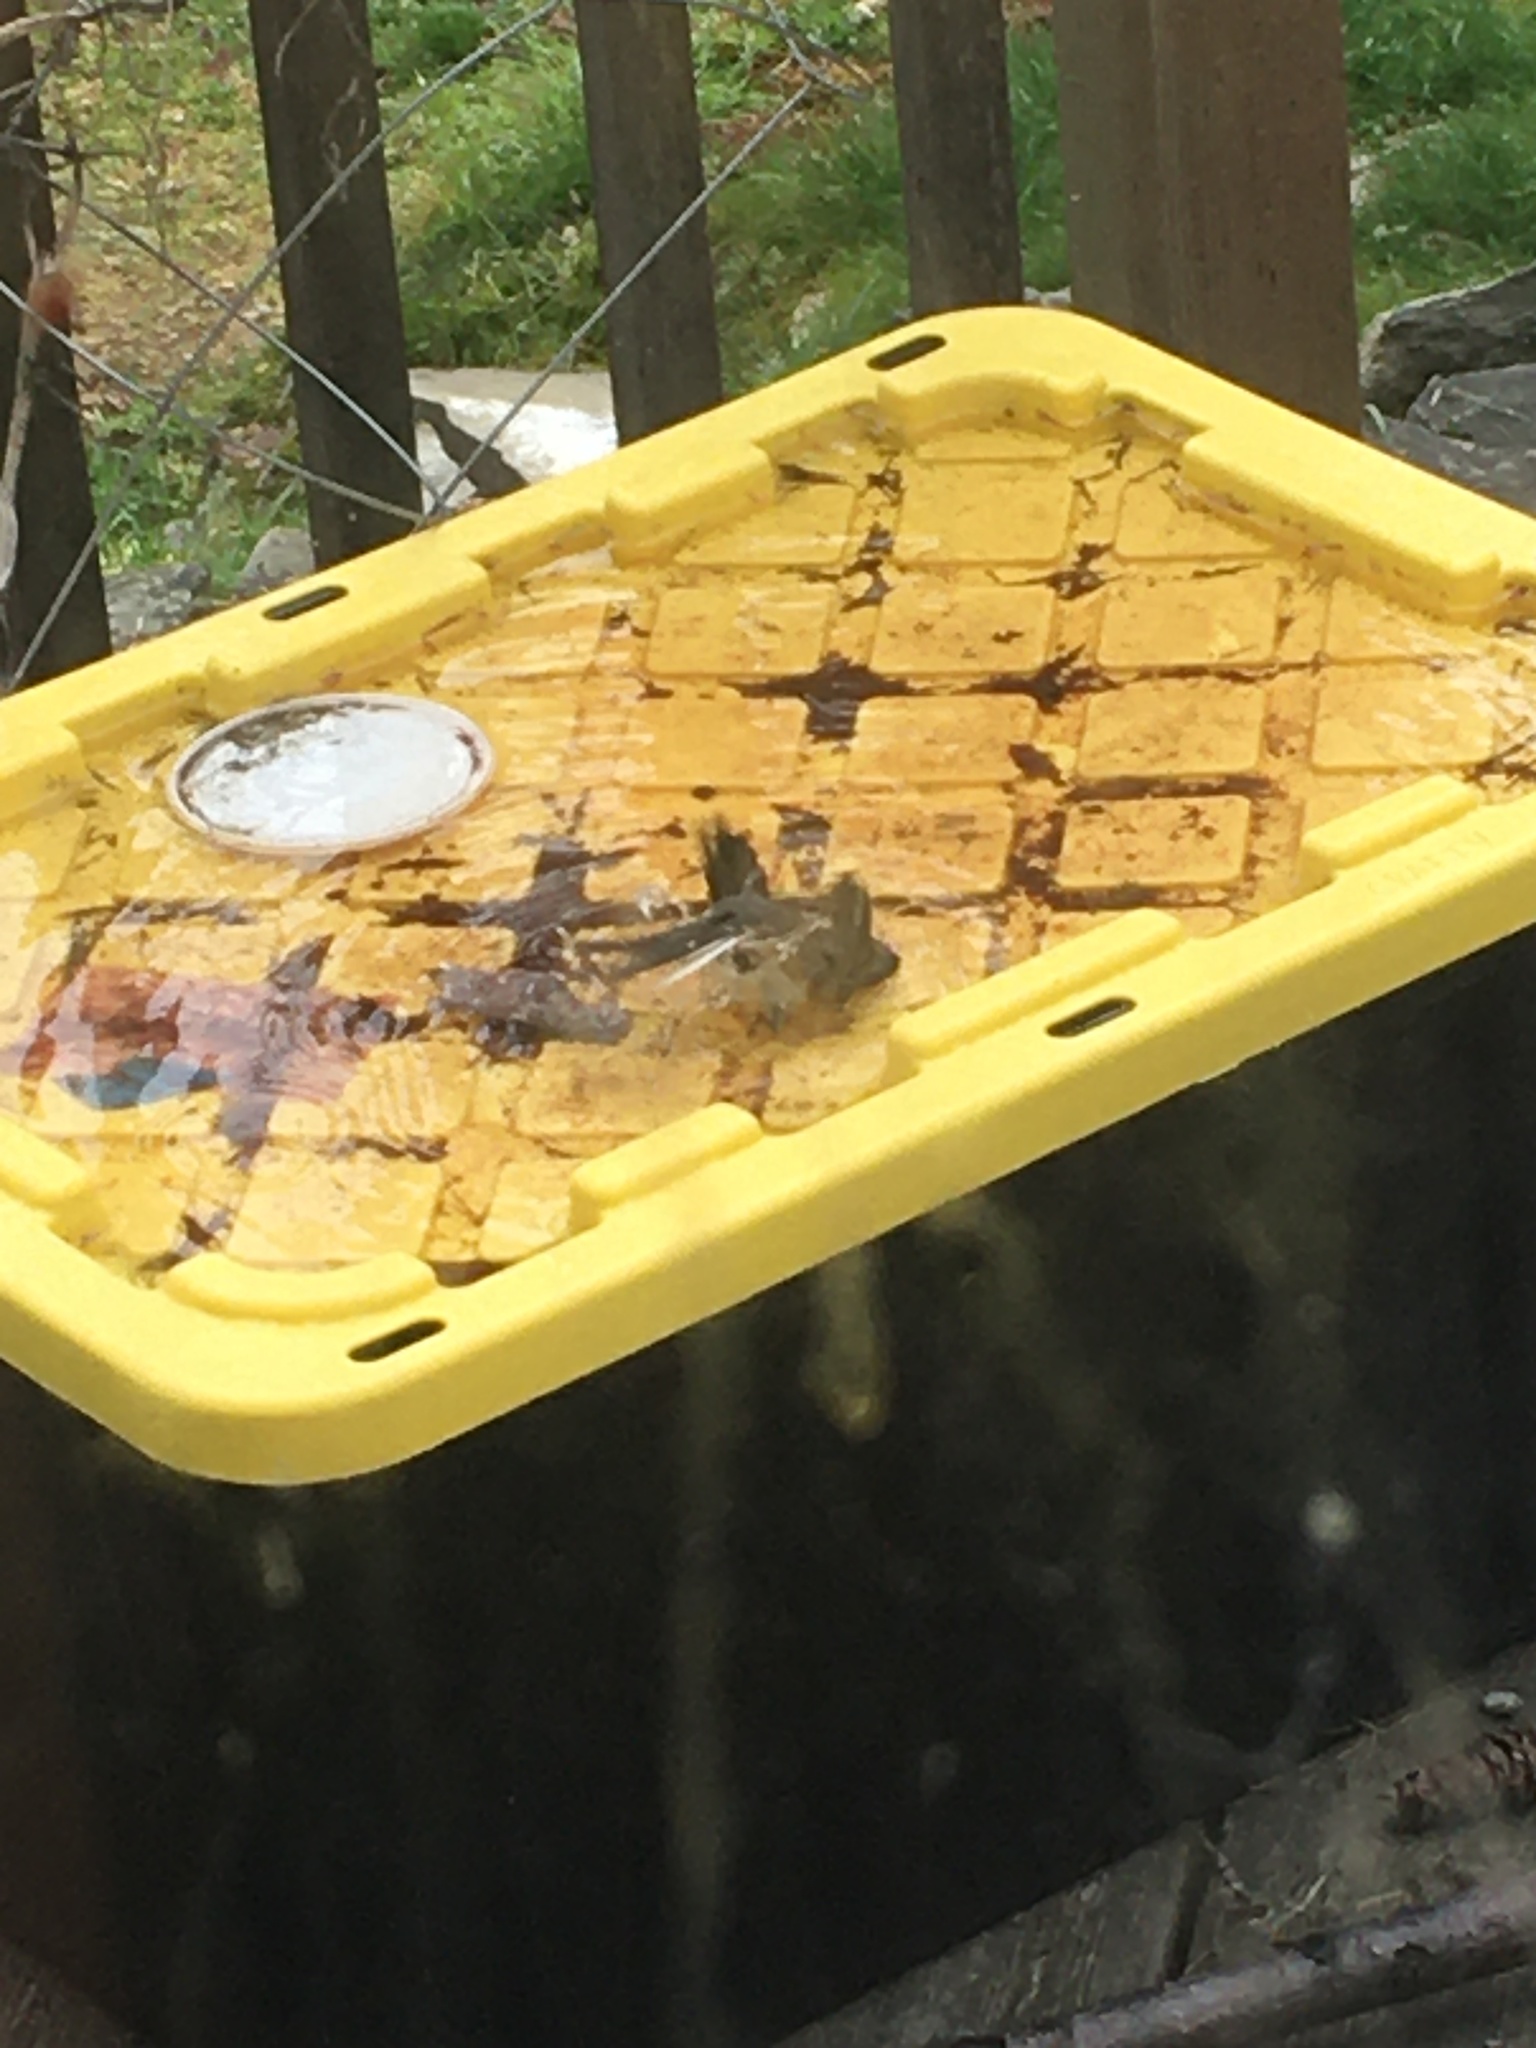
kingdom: Animalia
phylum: Chordata
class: Aves
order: Passeriformes
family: Passerellidae
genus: Junco
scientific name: Junco hyemalis
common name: Dark-eyed junco
